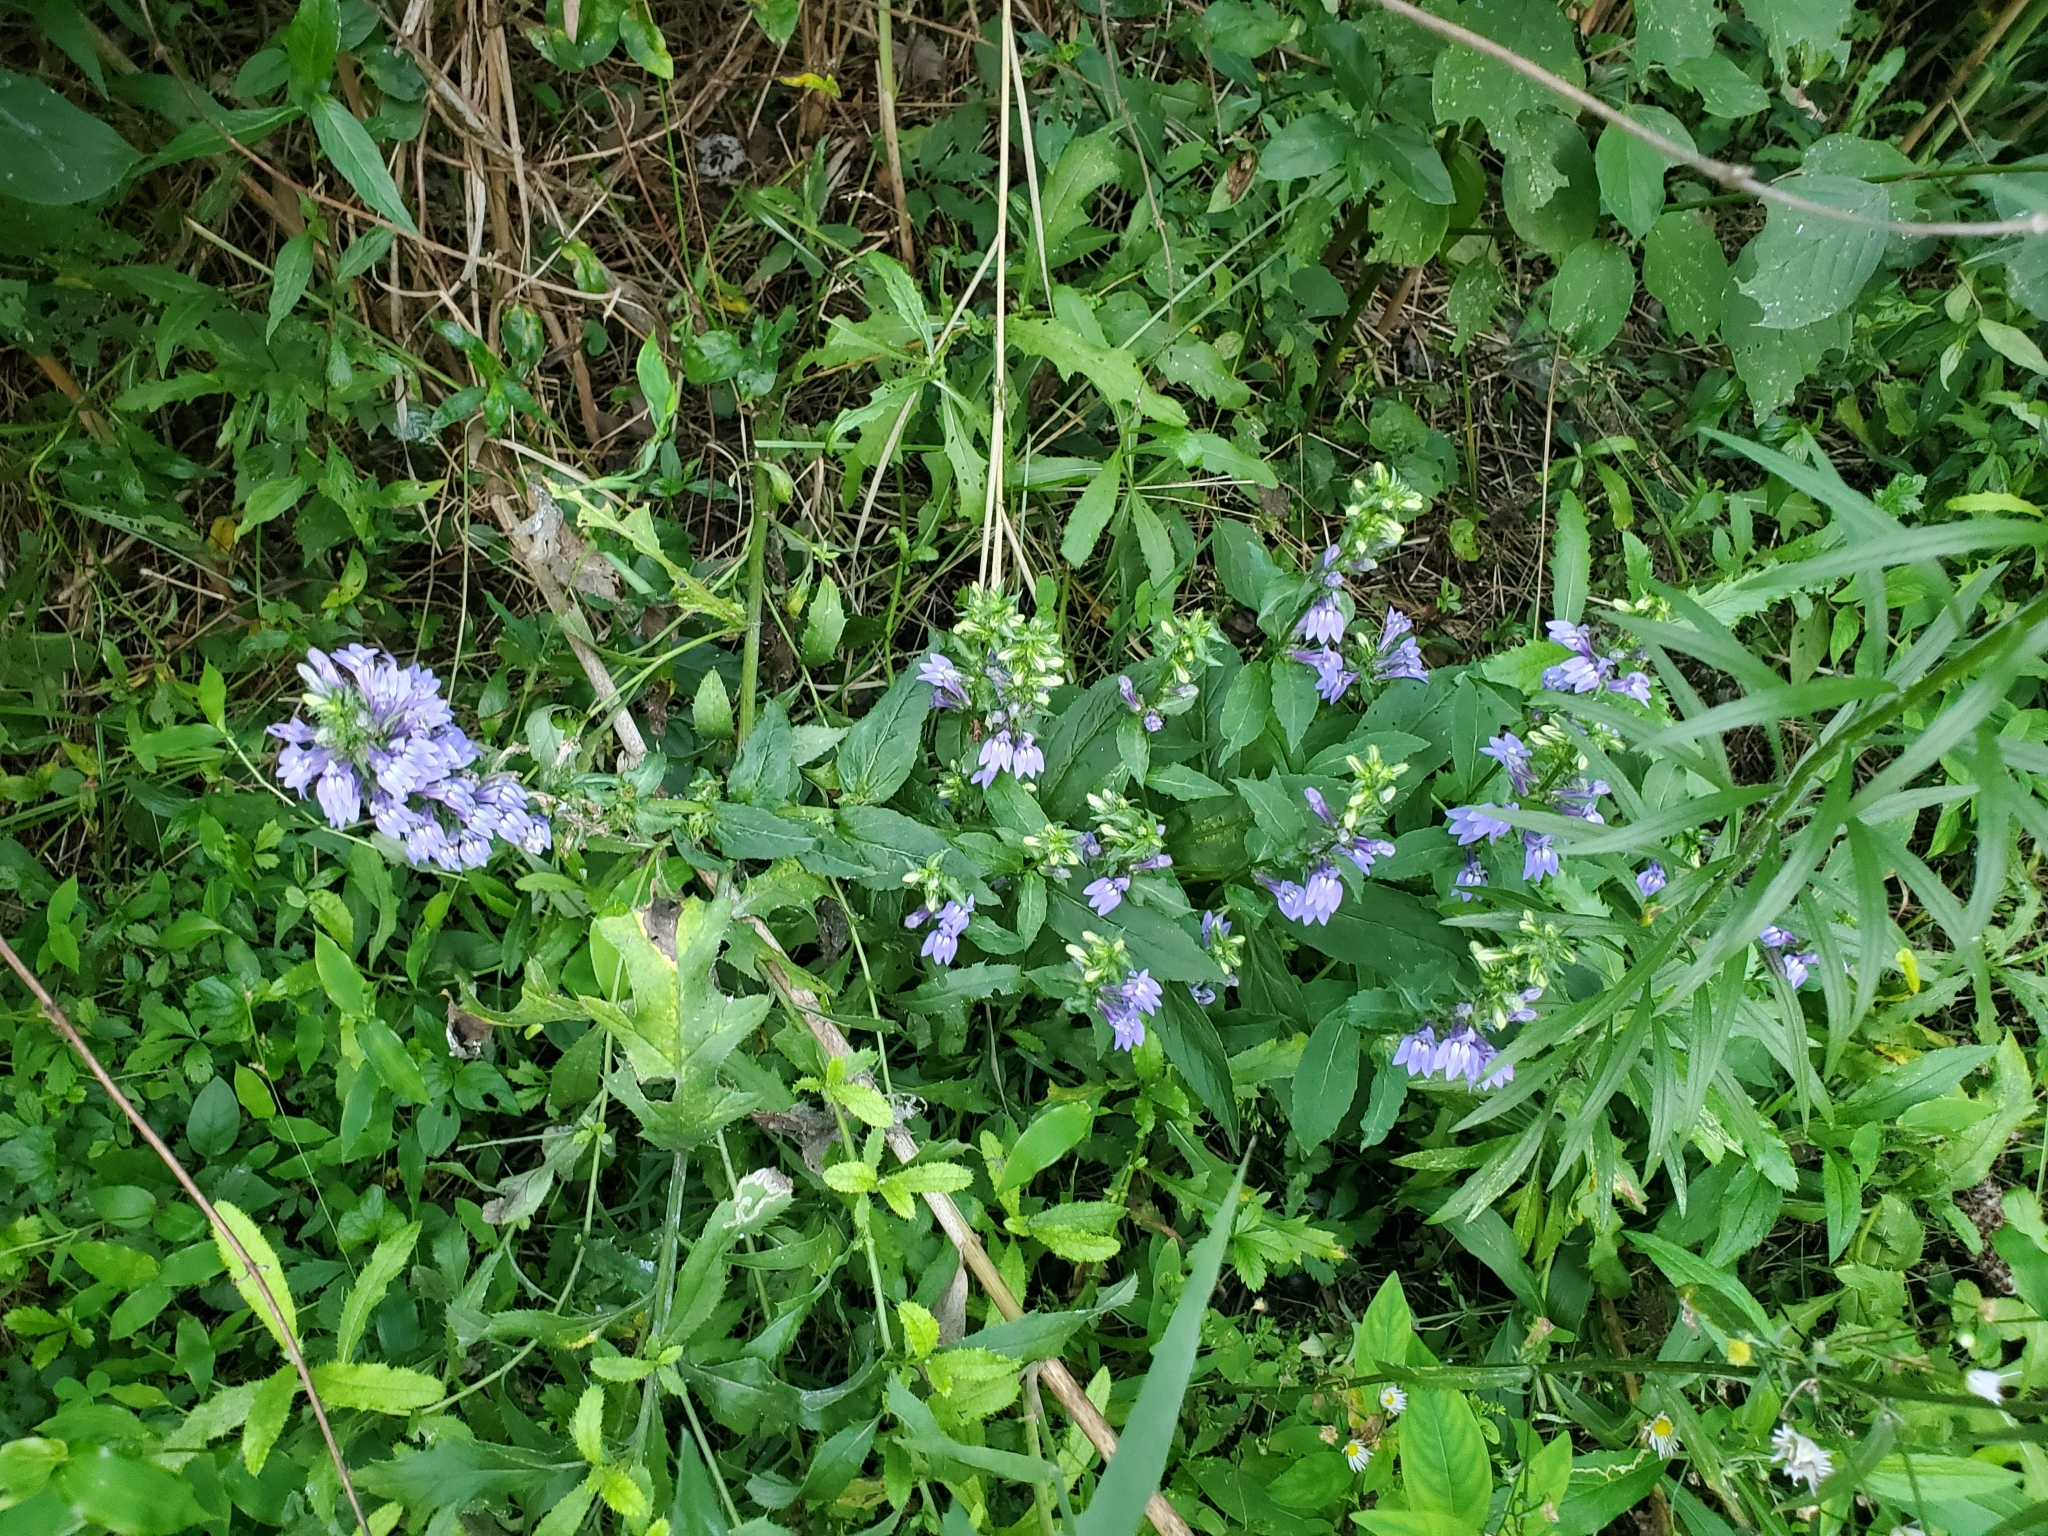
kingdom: Plantae
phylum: Tracheophyta
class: Magnoliopsida
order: Asterales
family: Campanulaceae
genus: Lobelia
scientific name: Lobelia siphilitica
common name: Great lobelia
